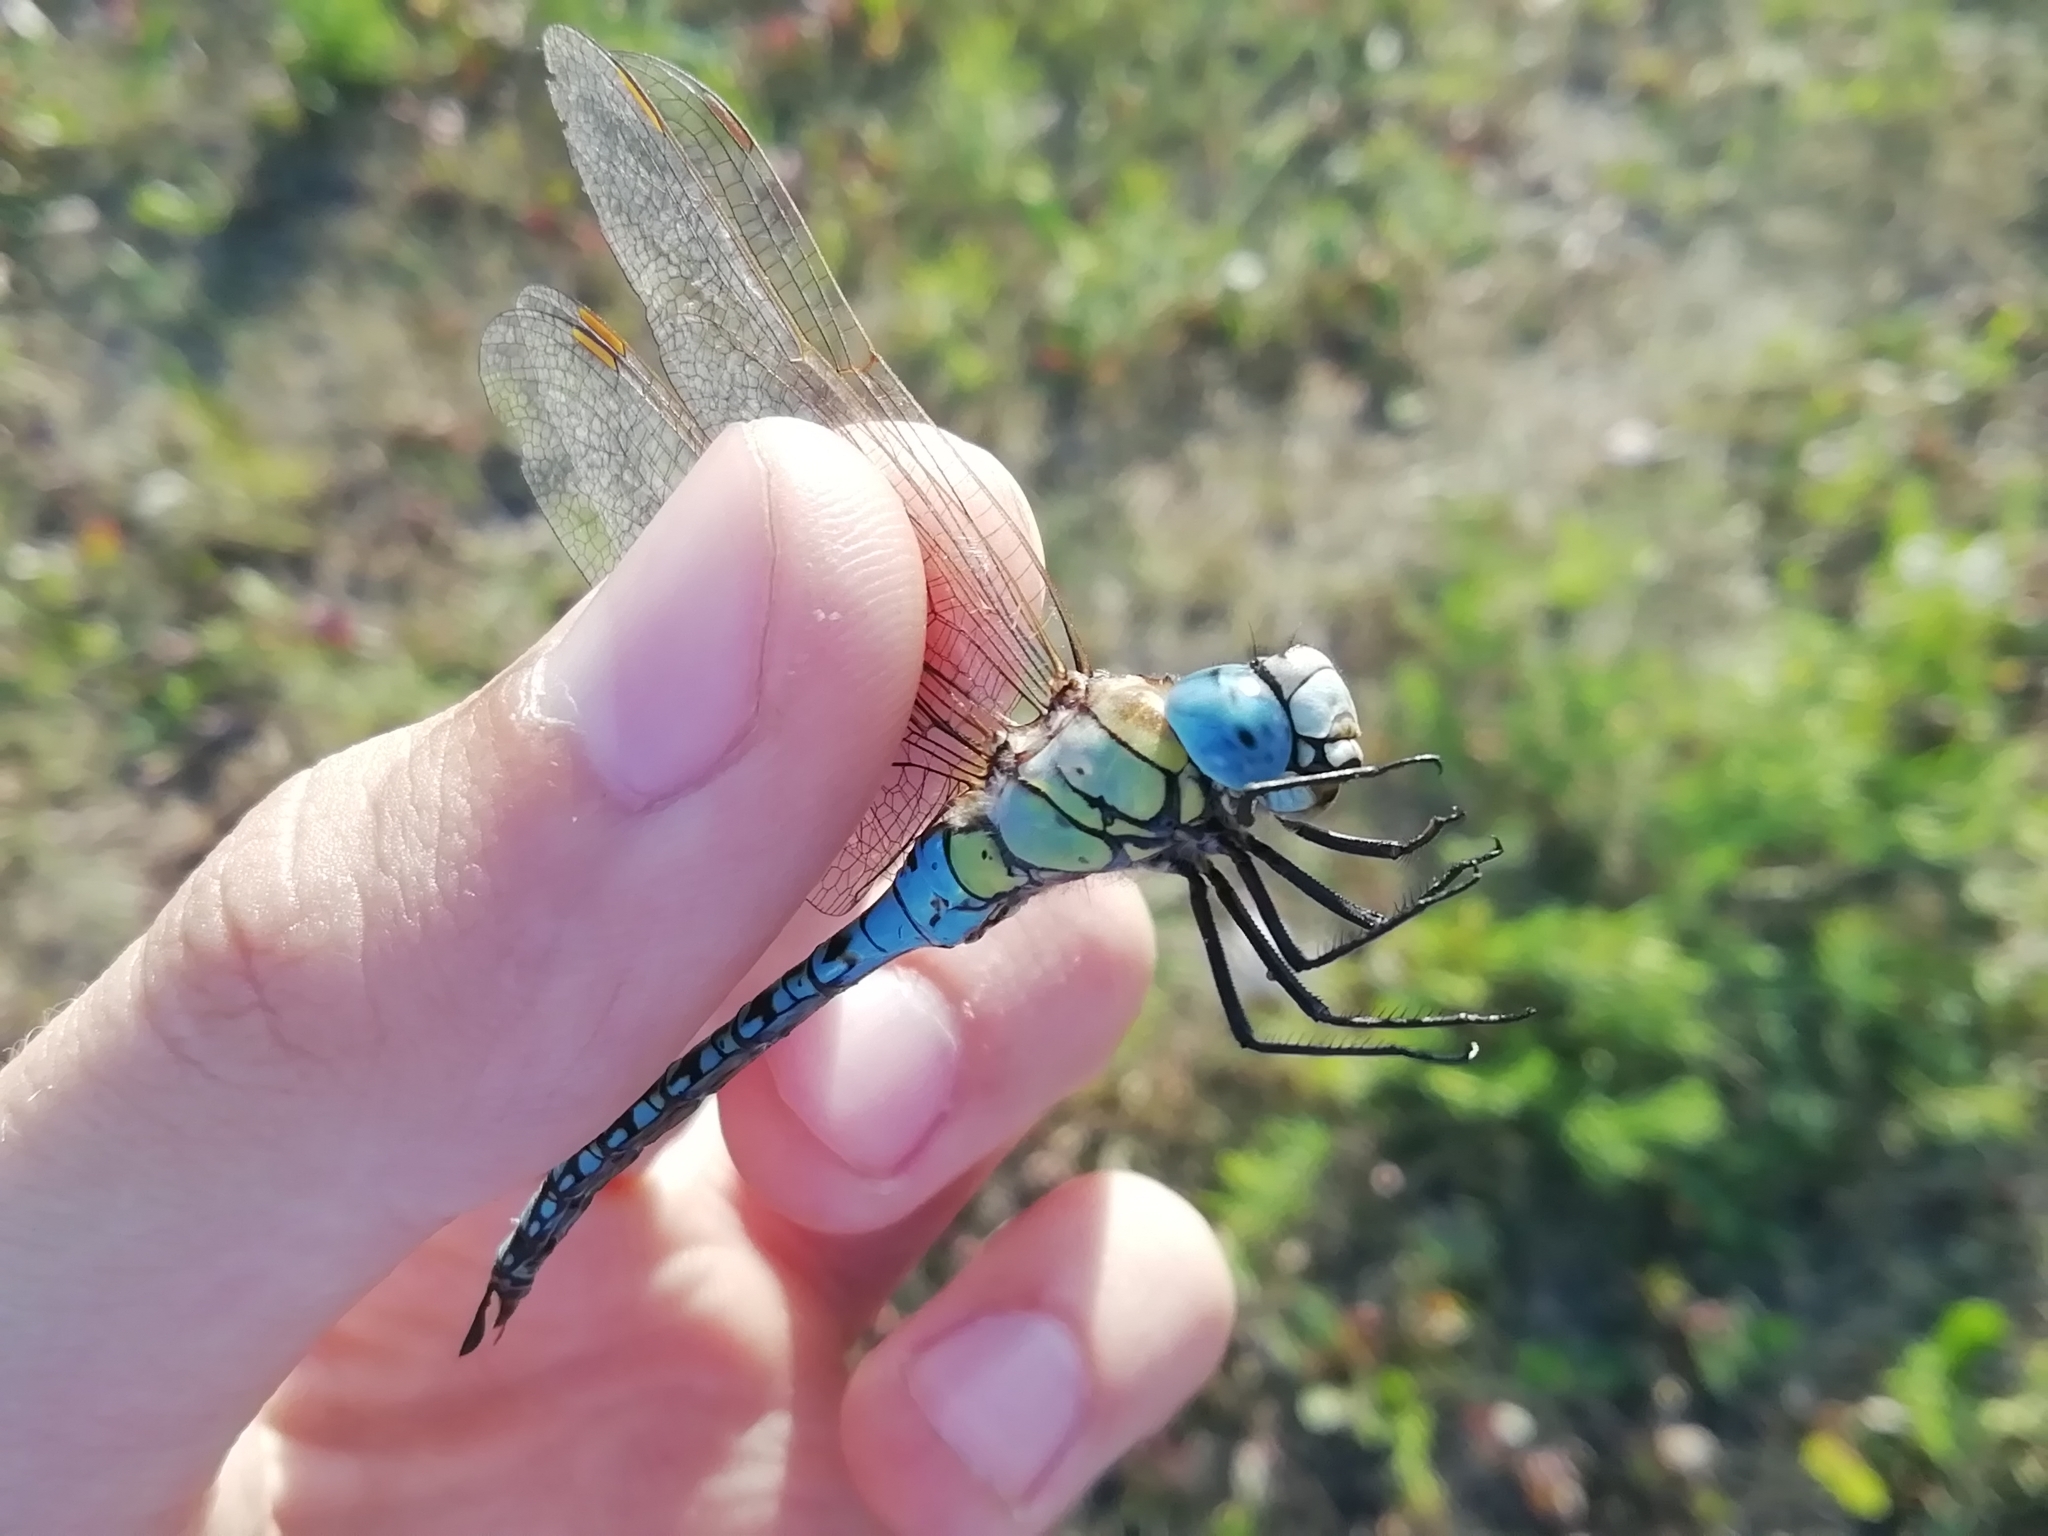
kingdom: Animalia
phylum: Arthropoda
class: Insecta
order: Odonata
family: Aeshnidae
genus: Aeshna
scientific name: Aeshna affinis
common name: Southern migrant hawker
